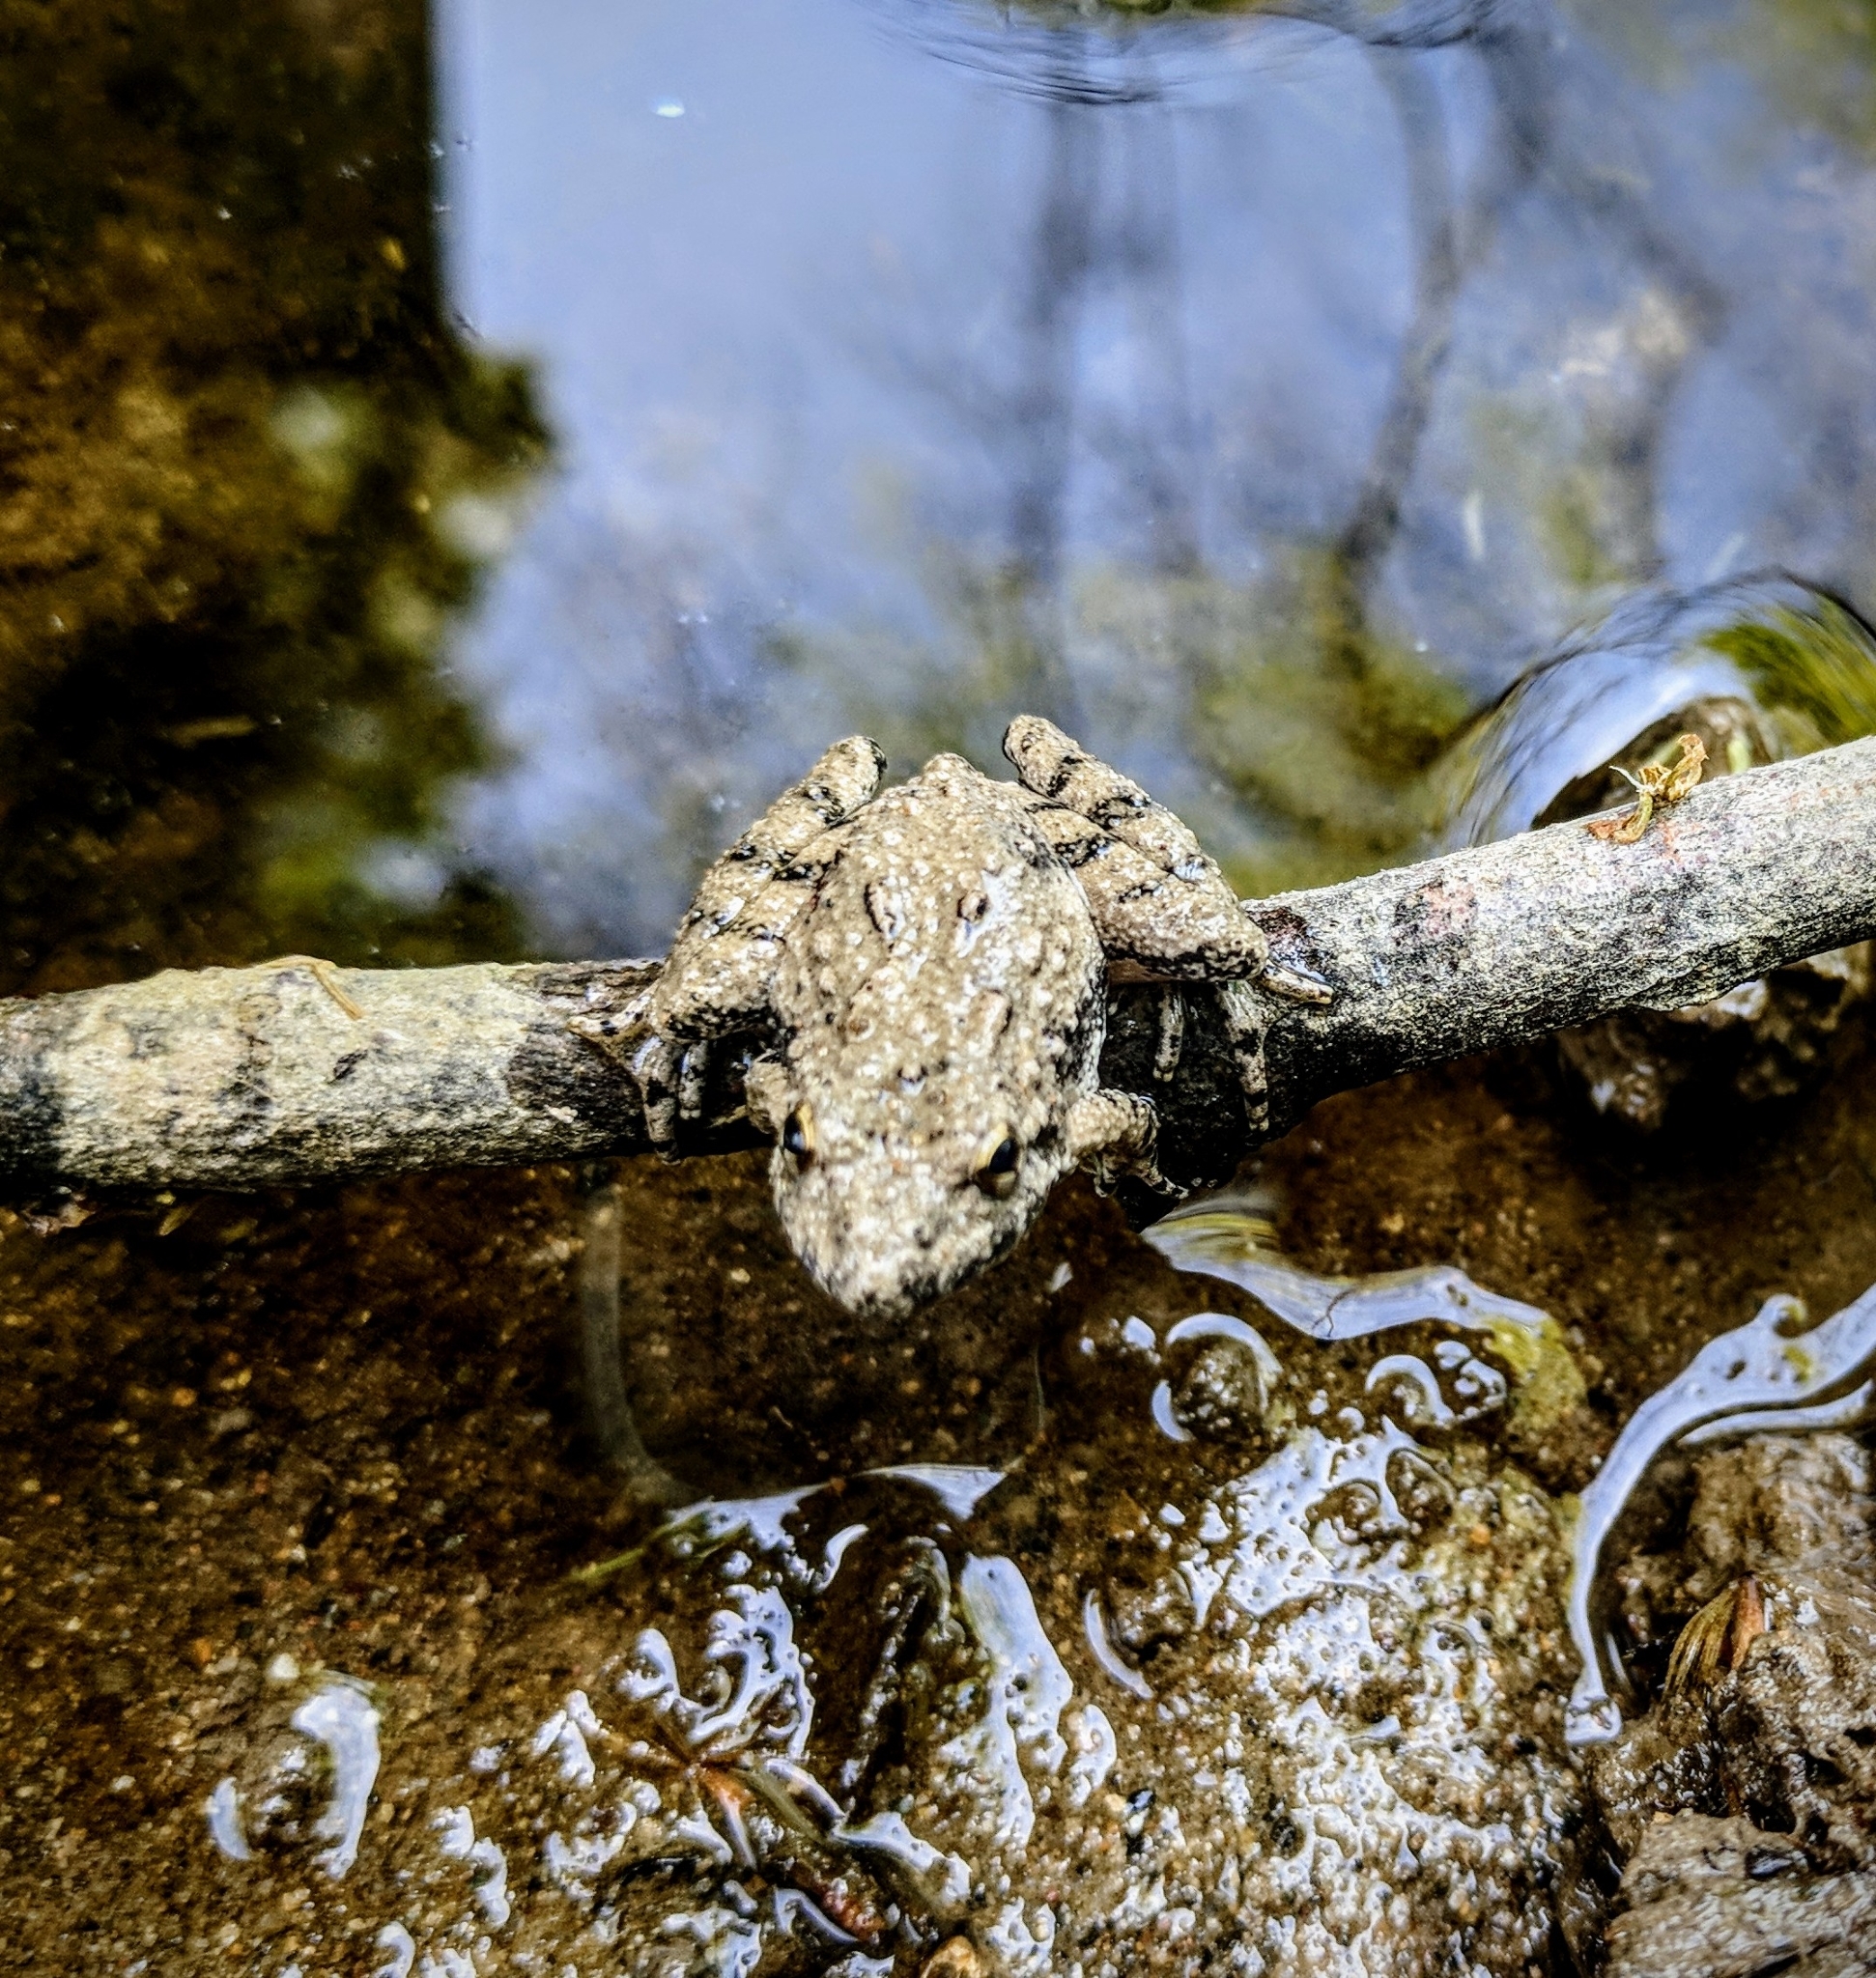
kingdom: Animalia
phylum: Chordata
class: Amphibia
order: Anura
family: Hylidae
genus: Acris
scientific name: Acris blanchardi
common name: Blanchard's cricket frog
